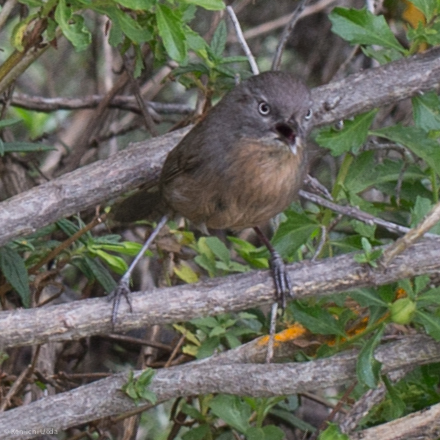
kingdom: Animalia
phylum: Chordata
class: Aves
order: Passeriformes
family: Sylviidae
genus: Chamaea
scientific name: Chamaea fasciata
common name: Wrentit
